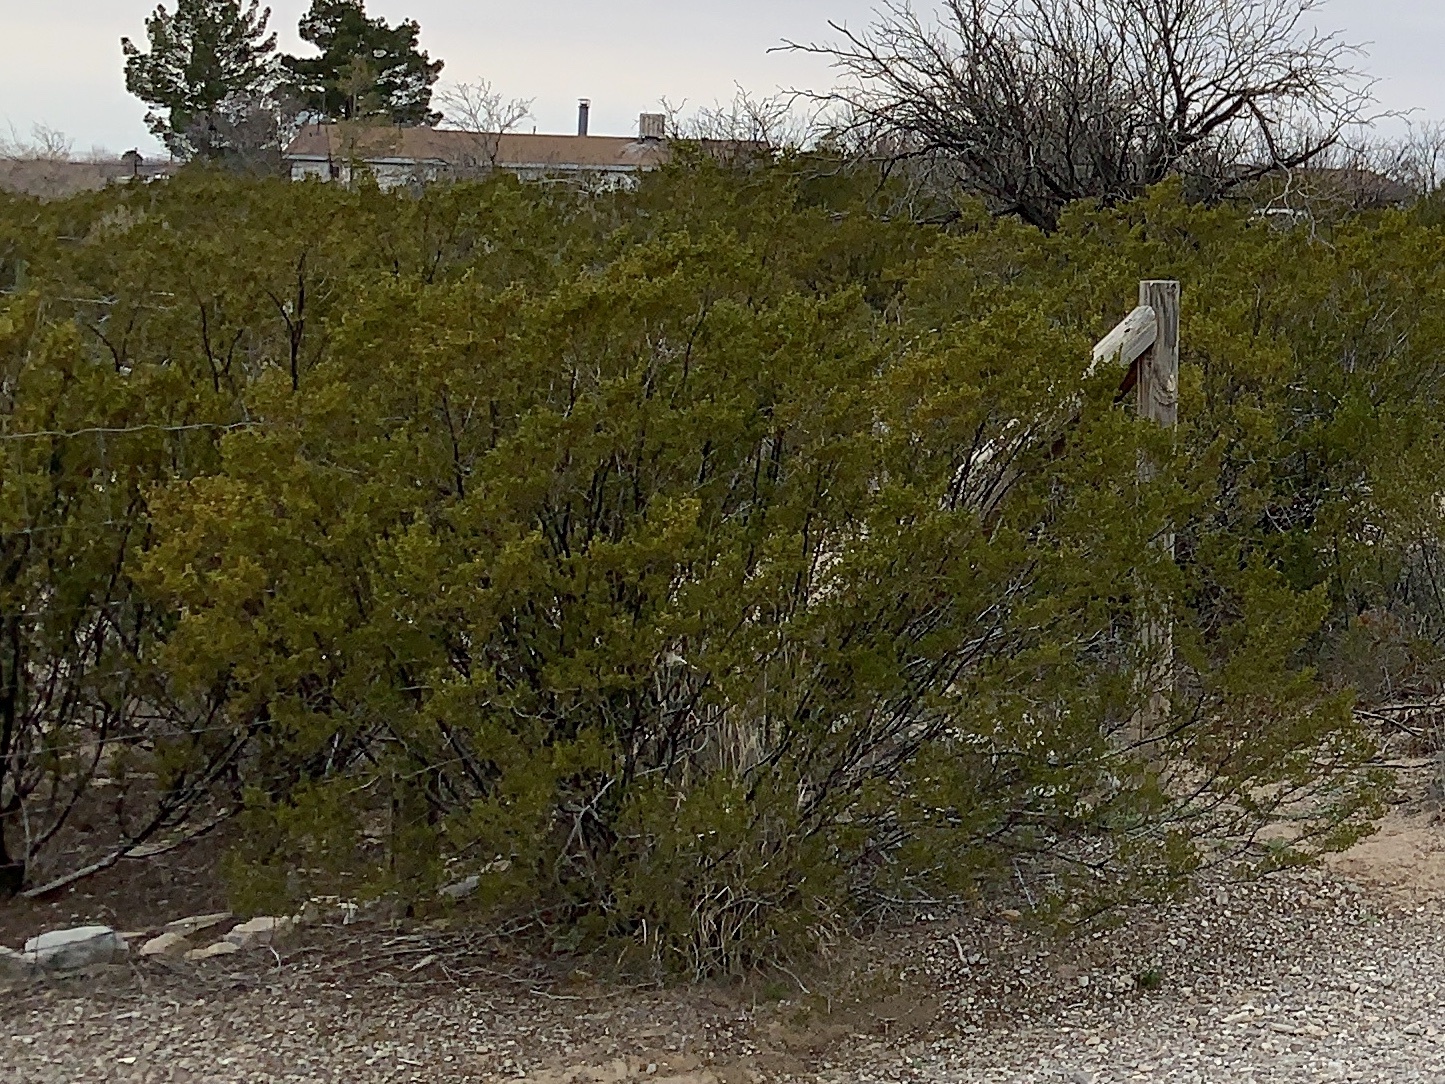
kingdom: Plantae
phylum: Tracheophyta
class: Magnoliopsida
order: Zygophyllales
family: Zygophyllaceae
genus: Larrea
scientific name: Larrea tridentata
